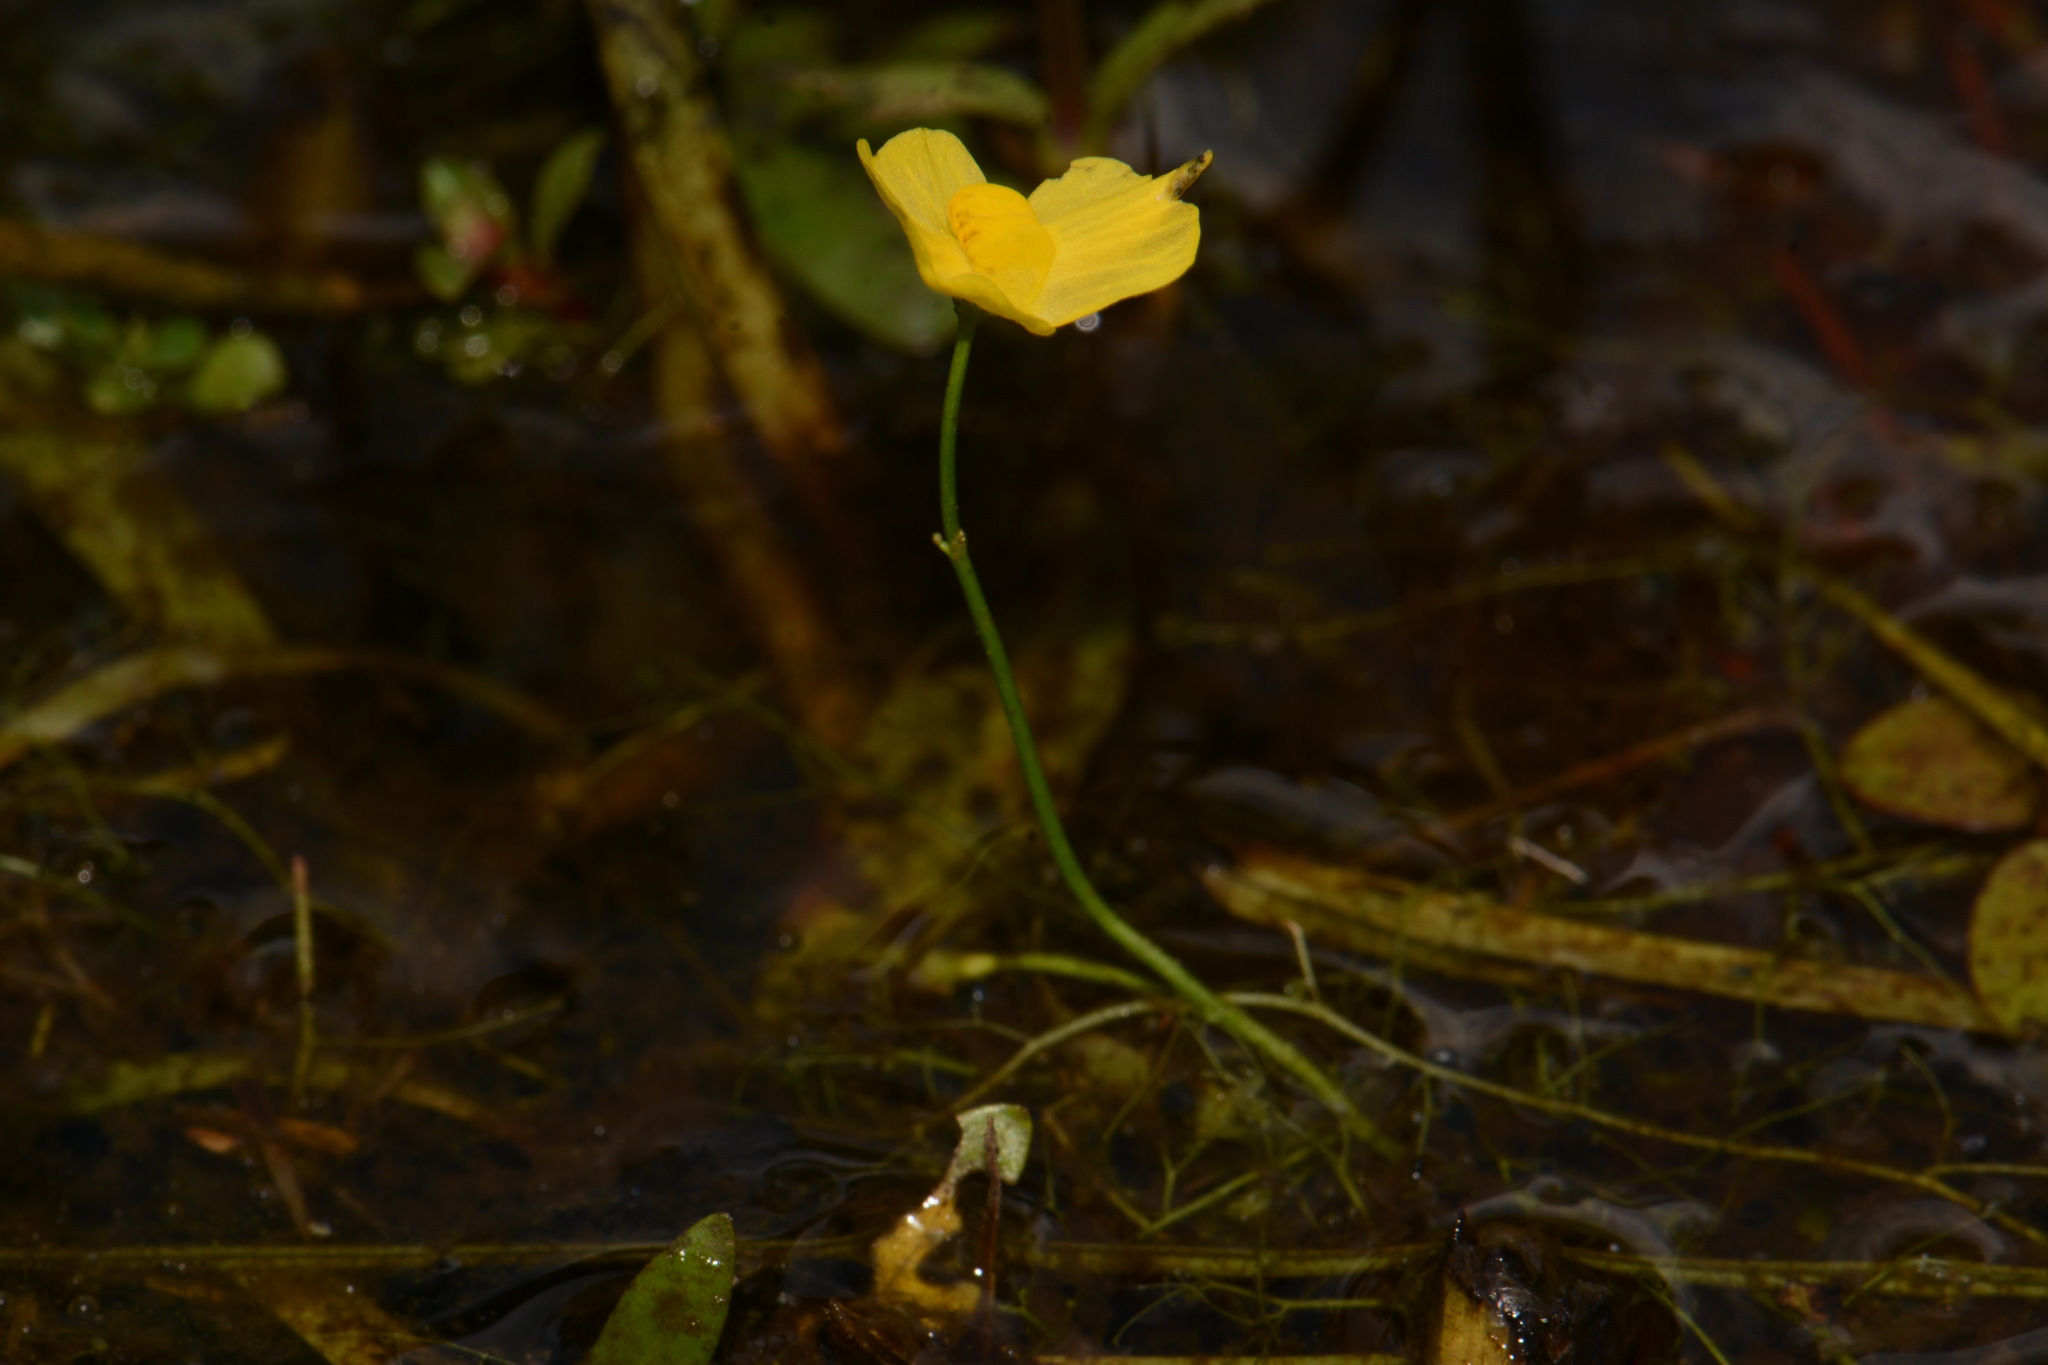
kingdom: Plantae
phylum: Tracheophyta
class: Magnoliopsida
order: Lamiales
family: Lentibulariaceae
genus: Utricularia
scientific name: Utricularia gibba
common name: Humped bladderwort
